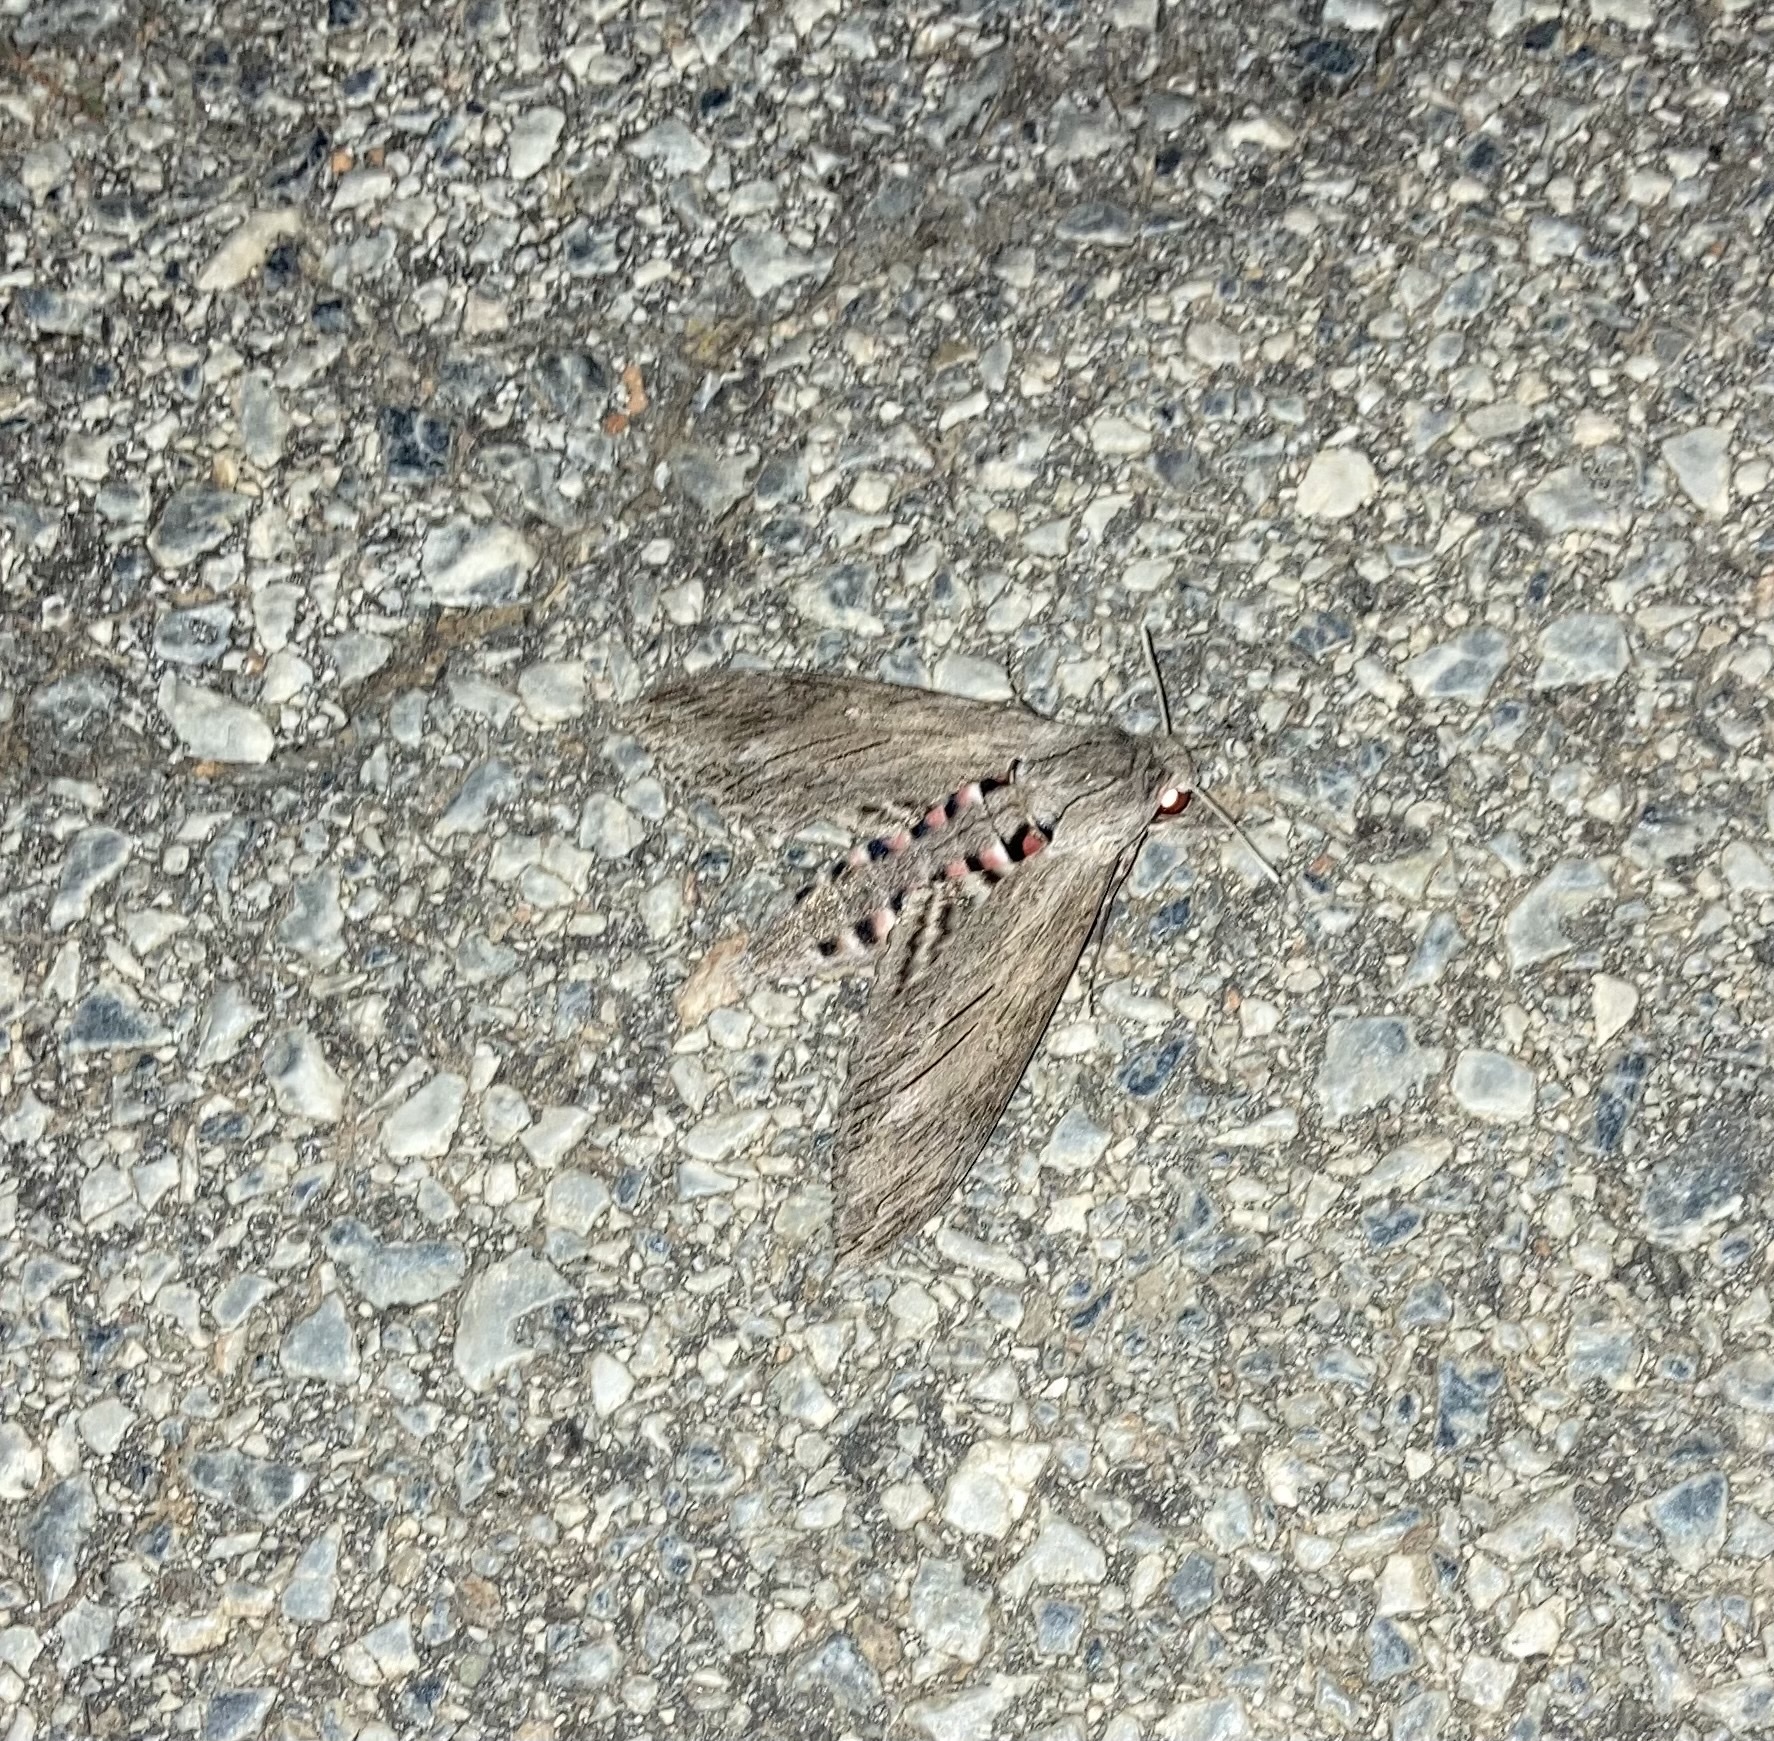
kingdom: Animalia
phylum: Arthropoda
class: Insecta
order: Lepidoptera
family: Sphingidae
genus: Agrius
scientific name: Agrius convolvuli
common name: Convolvulus hawkmoth
